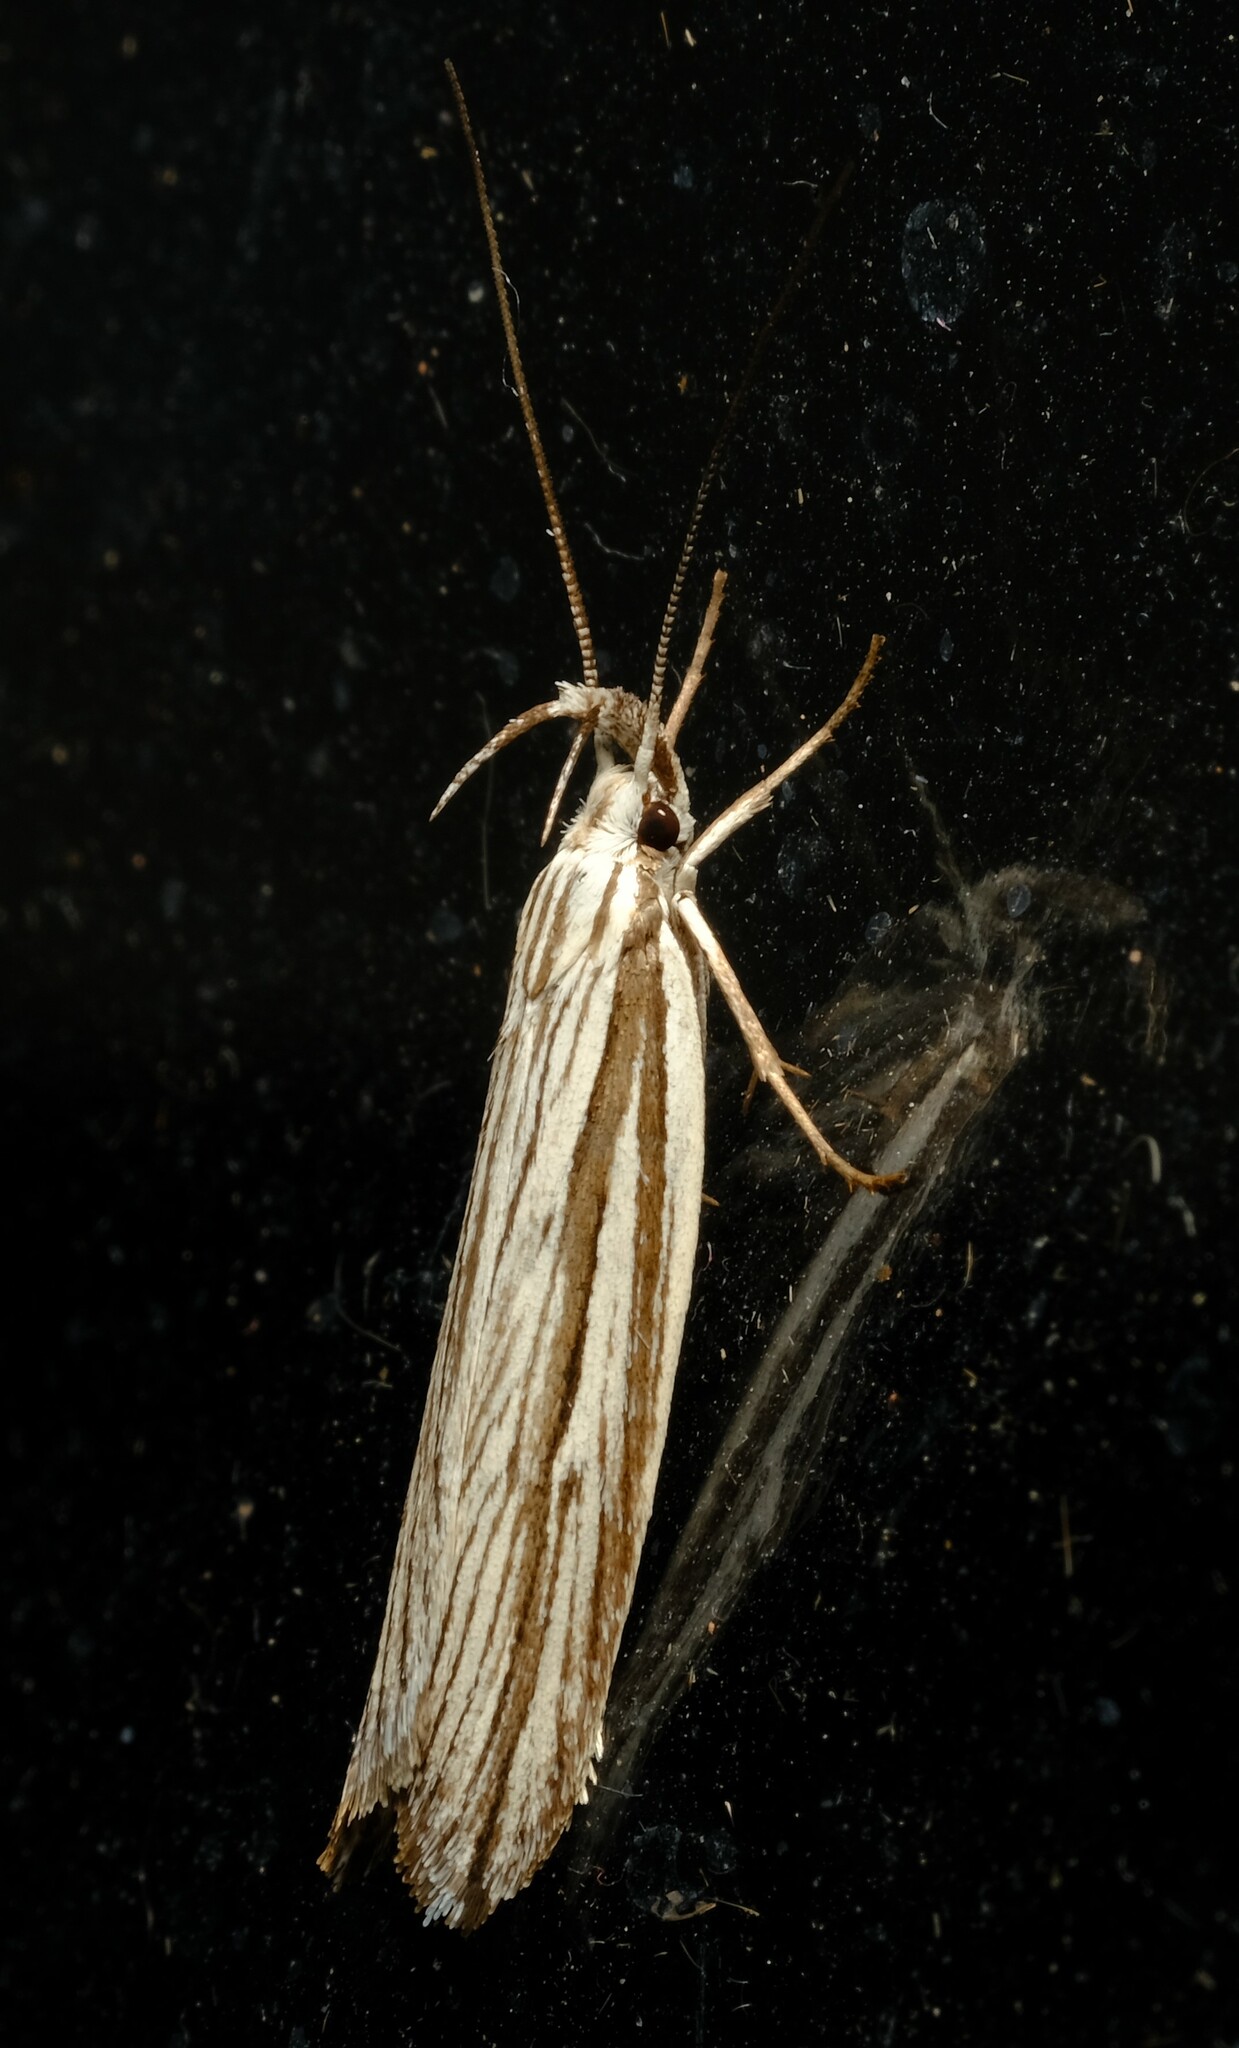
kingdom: Animalia
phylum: Arthropoda
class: Insecta
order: Lepidoptera
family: Xyloryctidae
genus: Bida
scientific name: Bida radiosella
